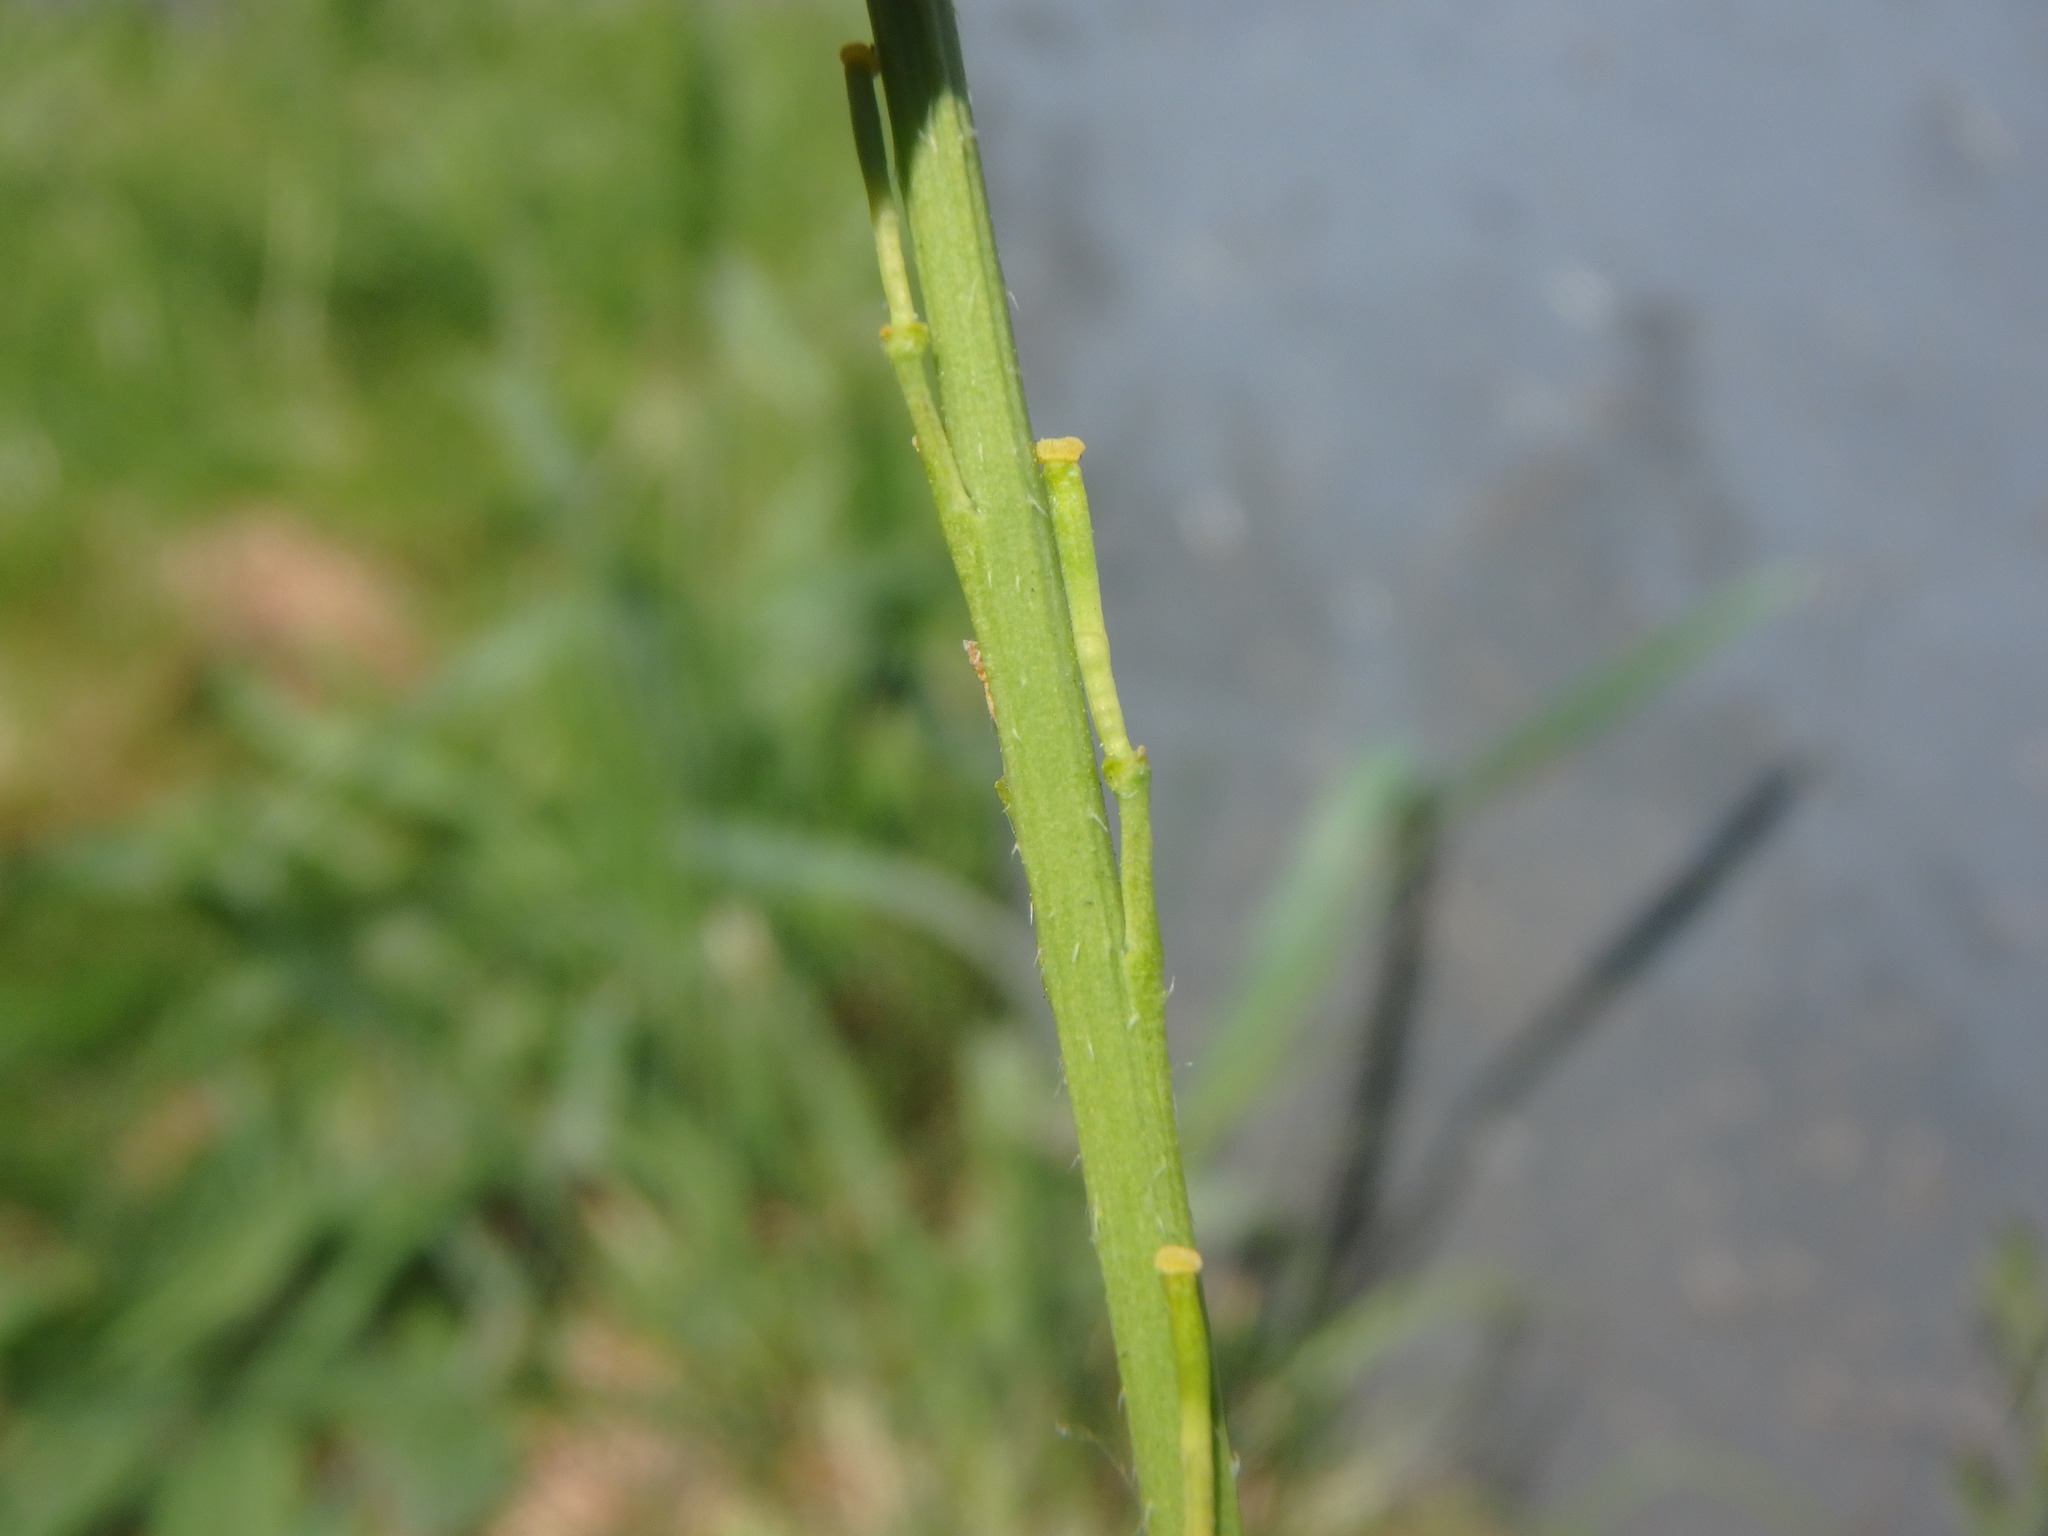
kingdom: Plantae
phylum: Tracheophyta
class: Magnoliopsida
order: Brassicales
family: Brassicaceae
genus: Hirschfeldia
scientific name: Hirschfeldia incana
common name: Hoary mustard
